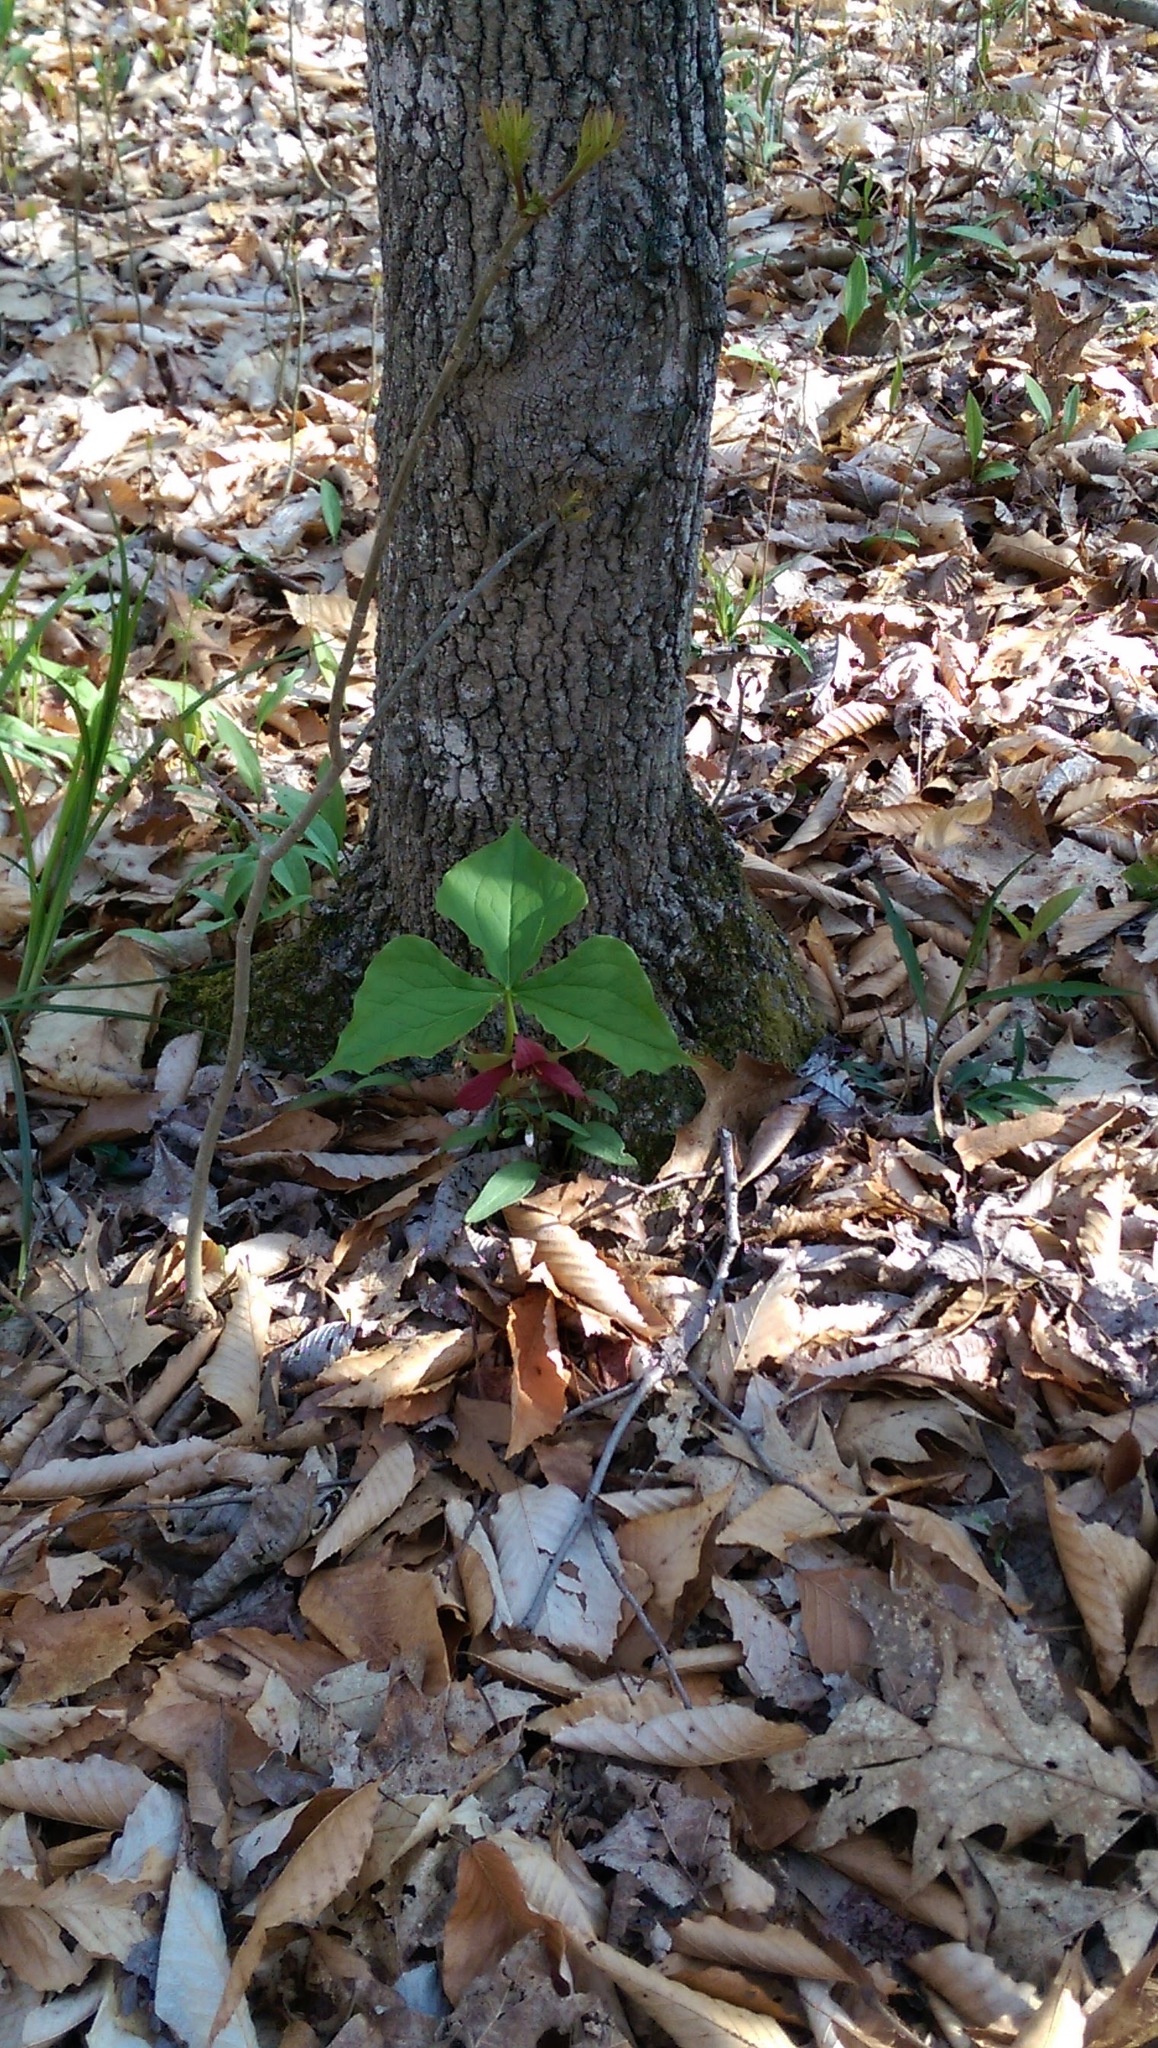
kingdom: Plantae
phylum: Tracheophyta
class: Liliopsida
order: Liliales
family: Melanthiaceae
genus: Trillium
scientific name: Trillium erectum
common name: Purple trillium
